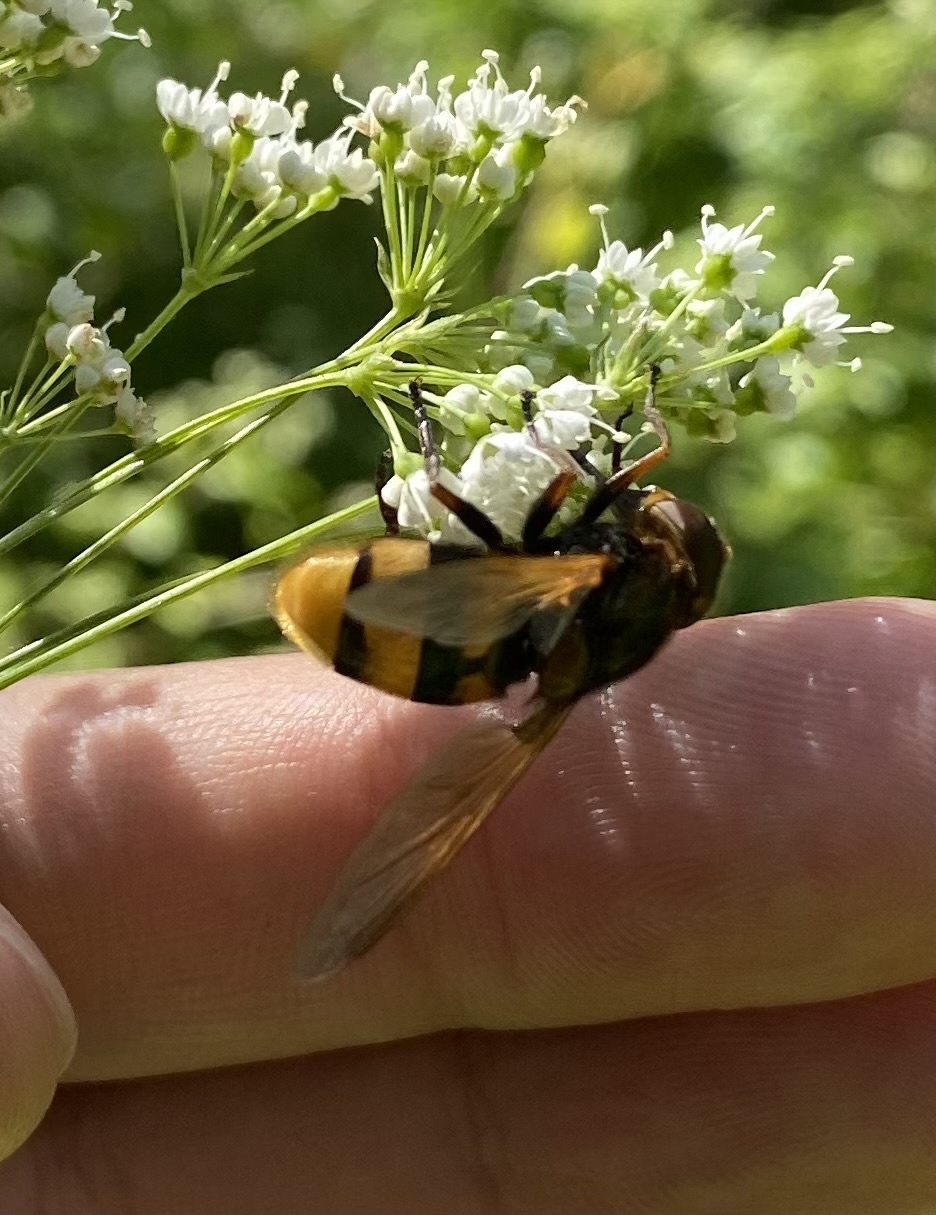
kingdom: Animalia
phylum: Arthropoda
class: Insecta
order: Diptera
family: Syrphidae
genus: Volucella
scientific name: Volucella zonaria
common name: Hornet hoverfly
